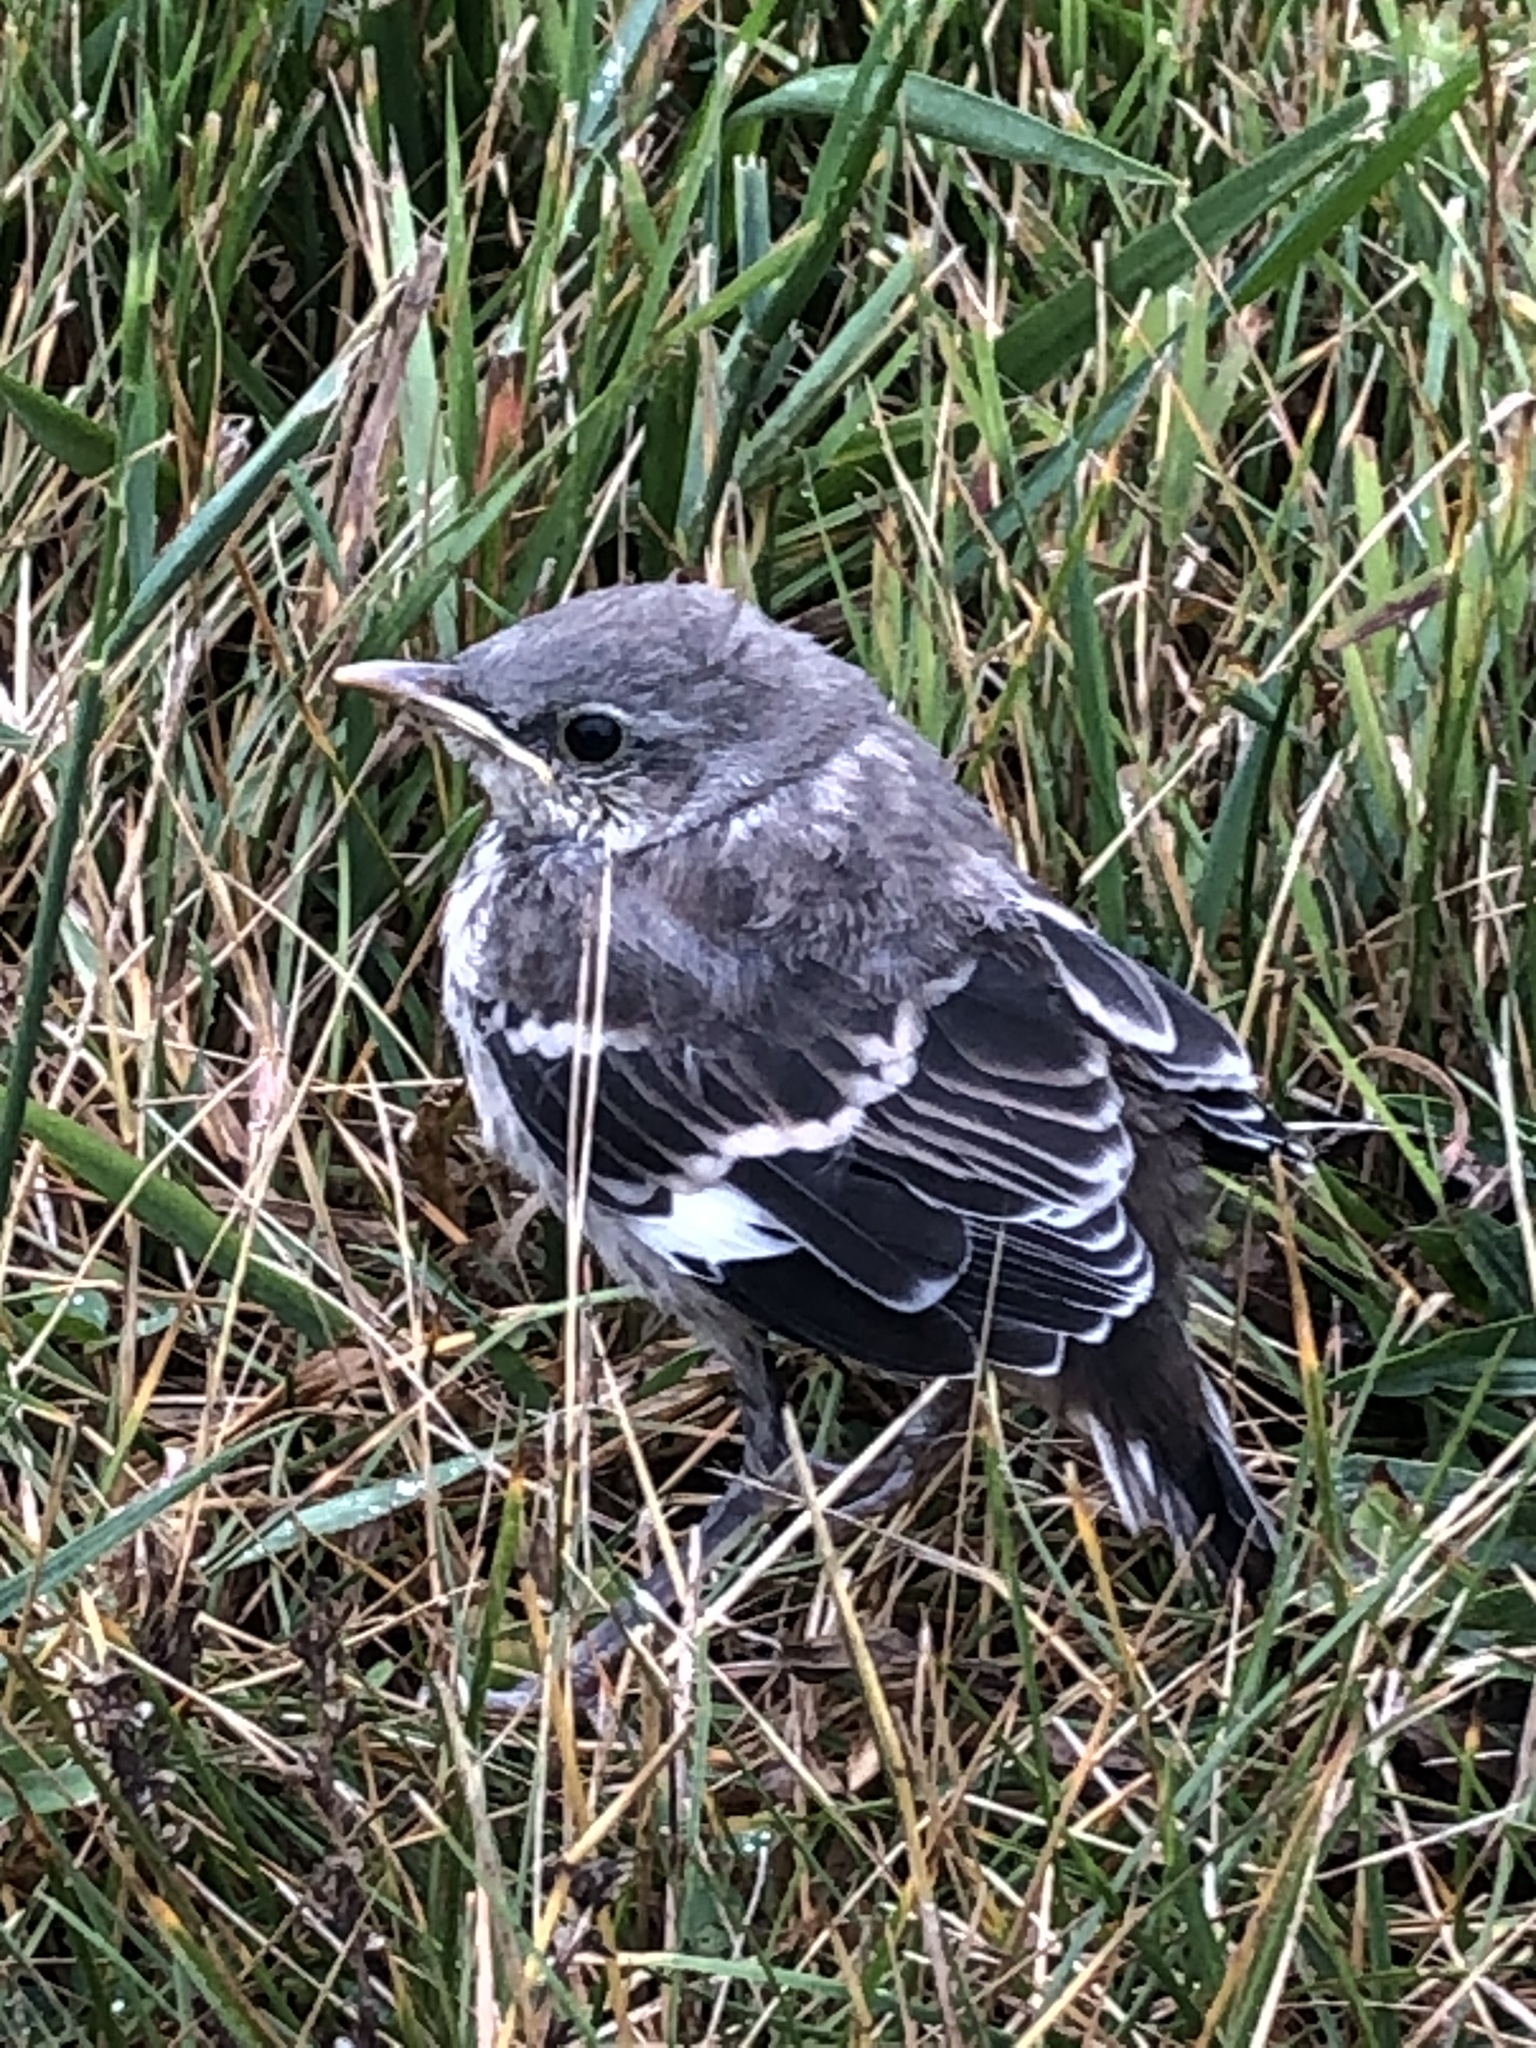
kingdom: Animalia
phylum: Chordata
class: Aves
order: Passeriformes
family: Mimidae
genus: Mimus
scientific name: Mimus polyglottos
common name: Northern mockingbird
